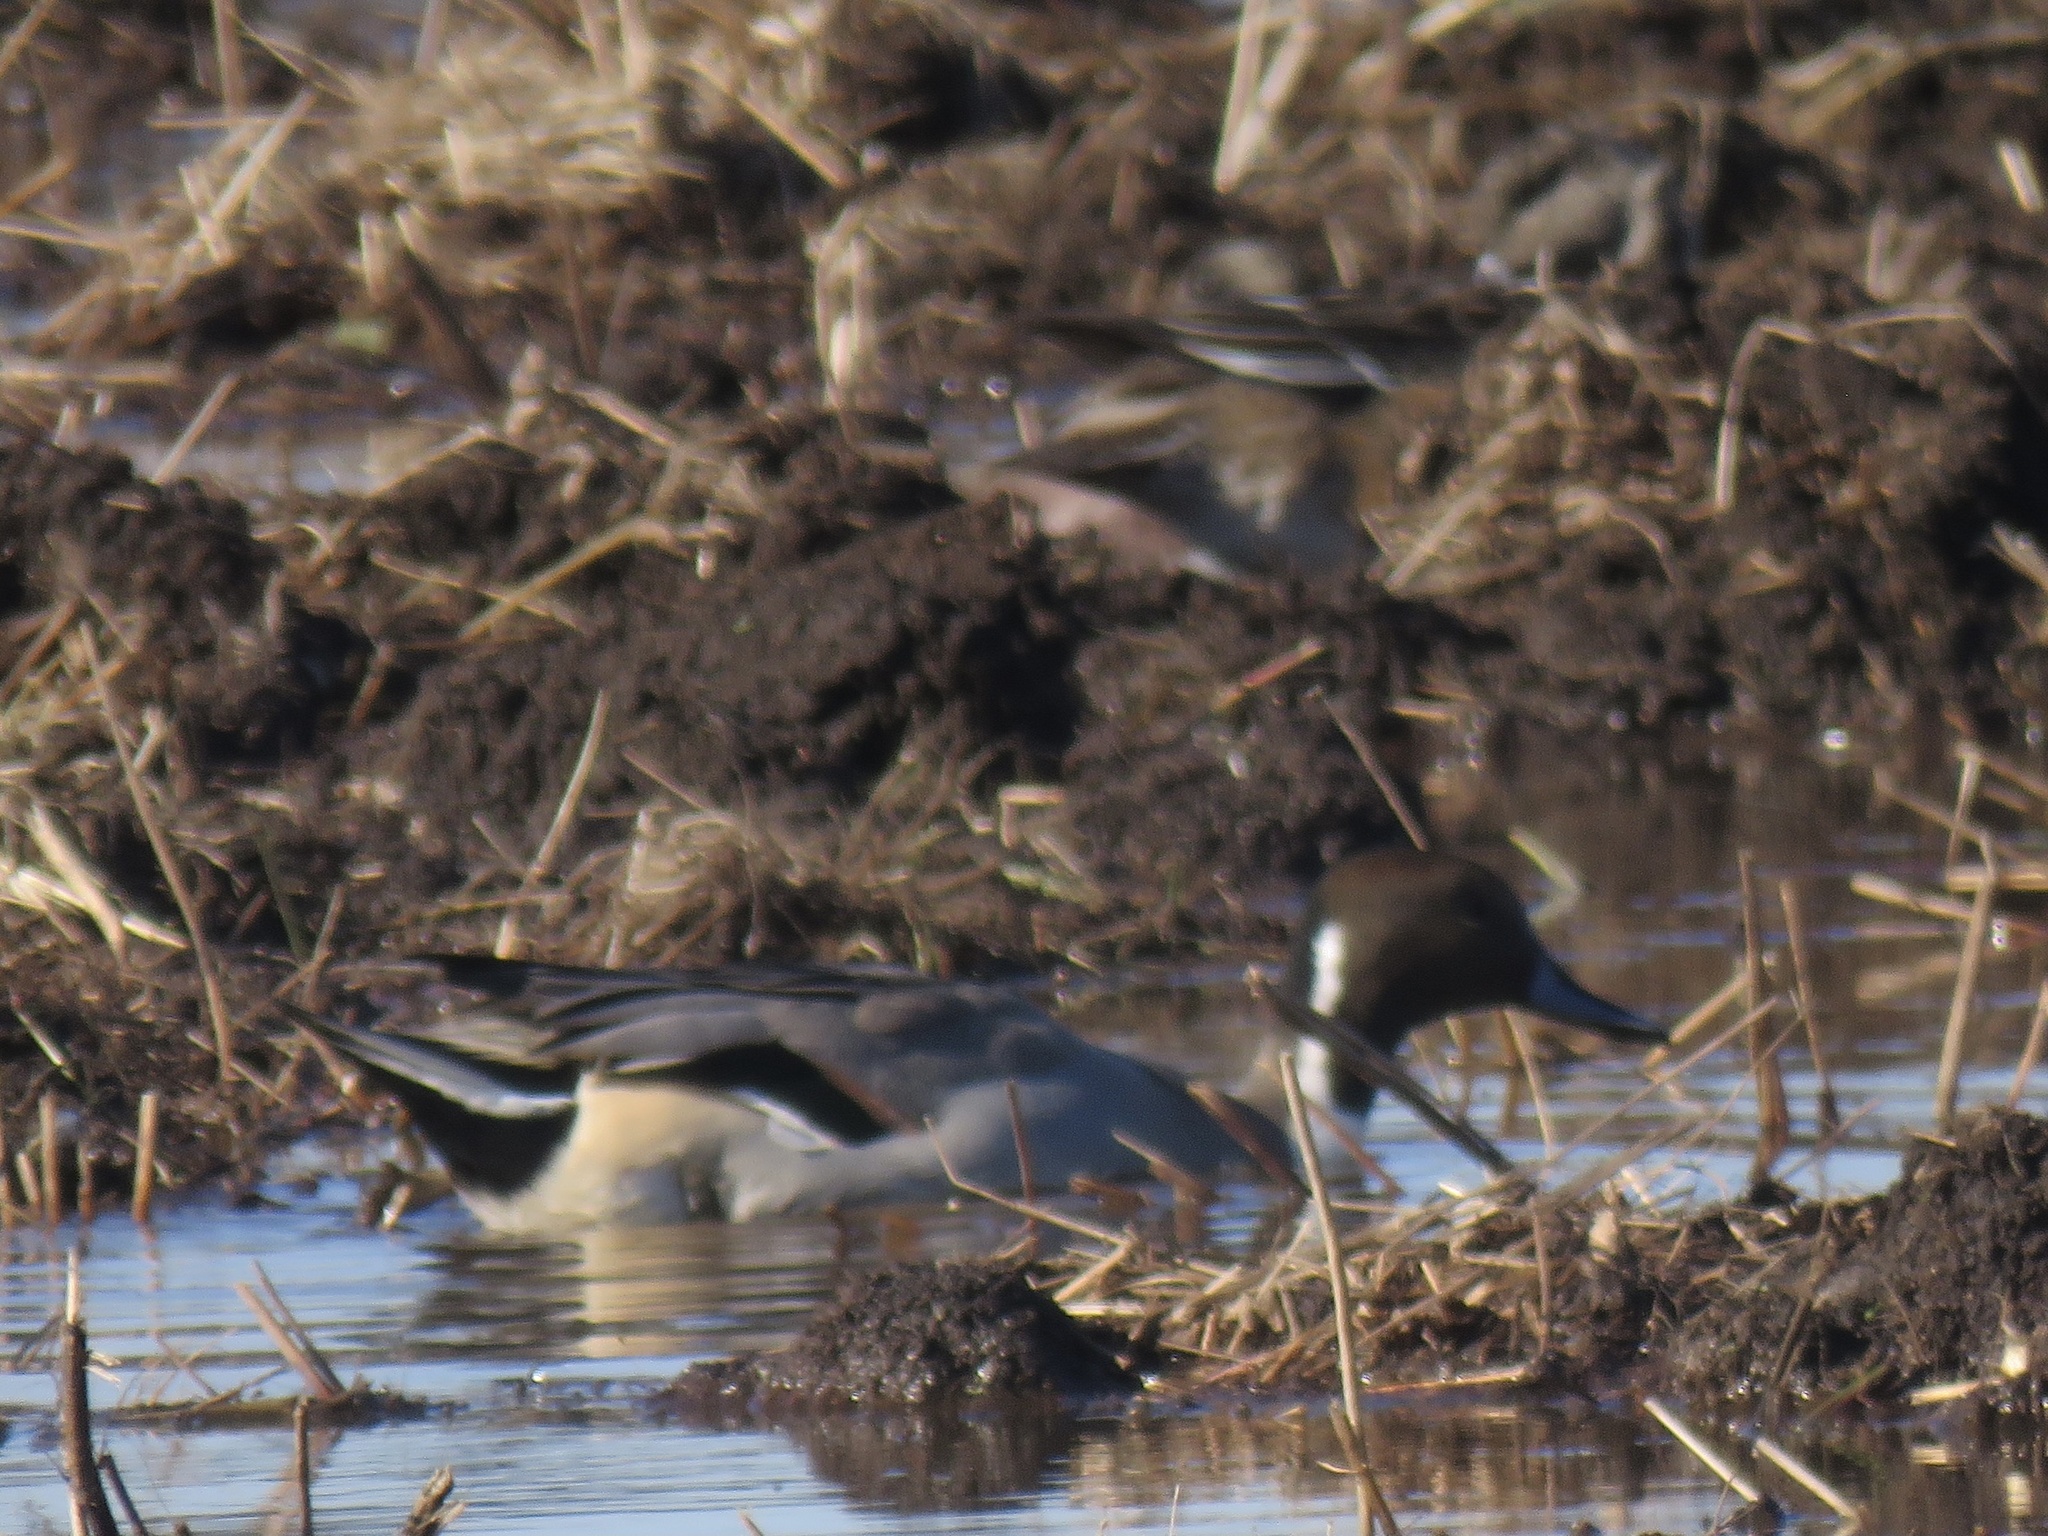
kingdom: Animalia
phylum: Chordata
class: Aves
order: Anseriformes
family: Anatidae
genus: Anas
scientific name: Anas acuta
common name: Northern pintail
